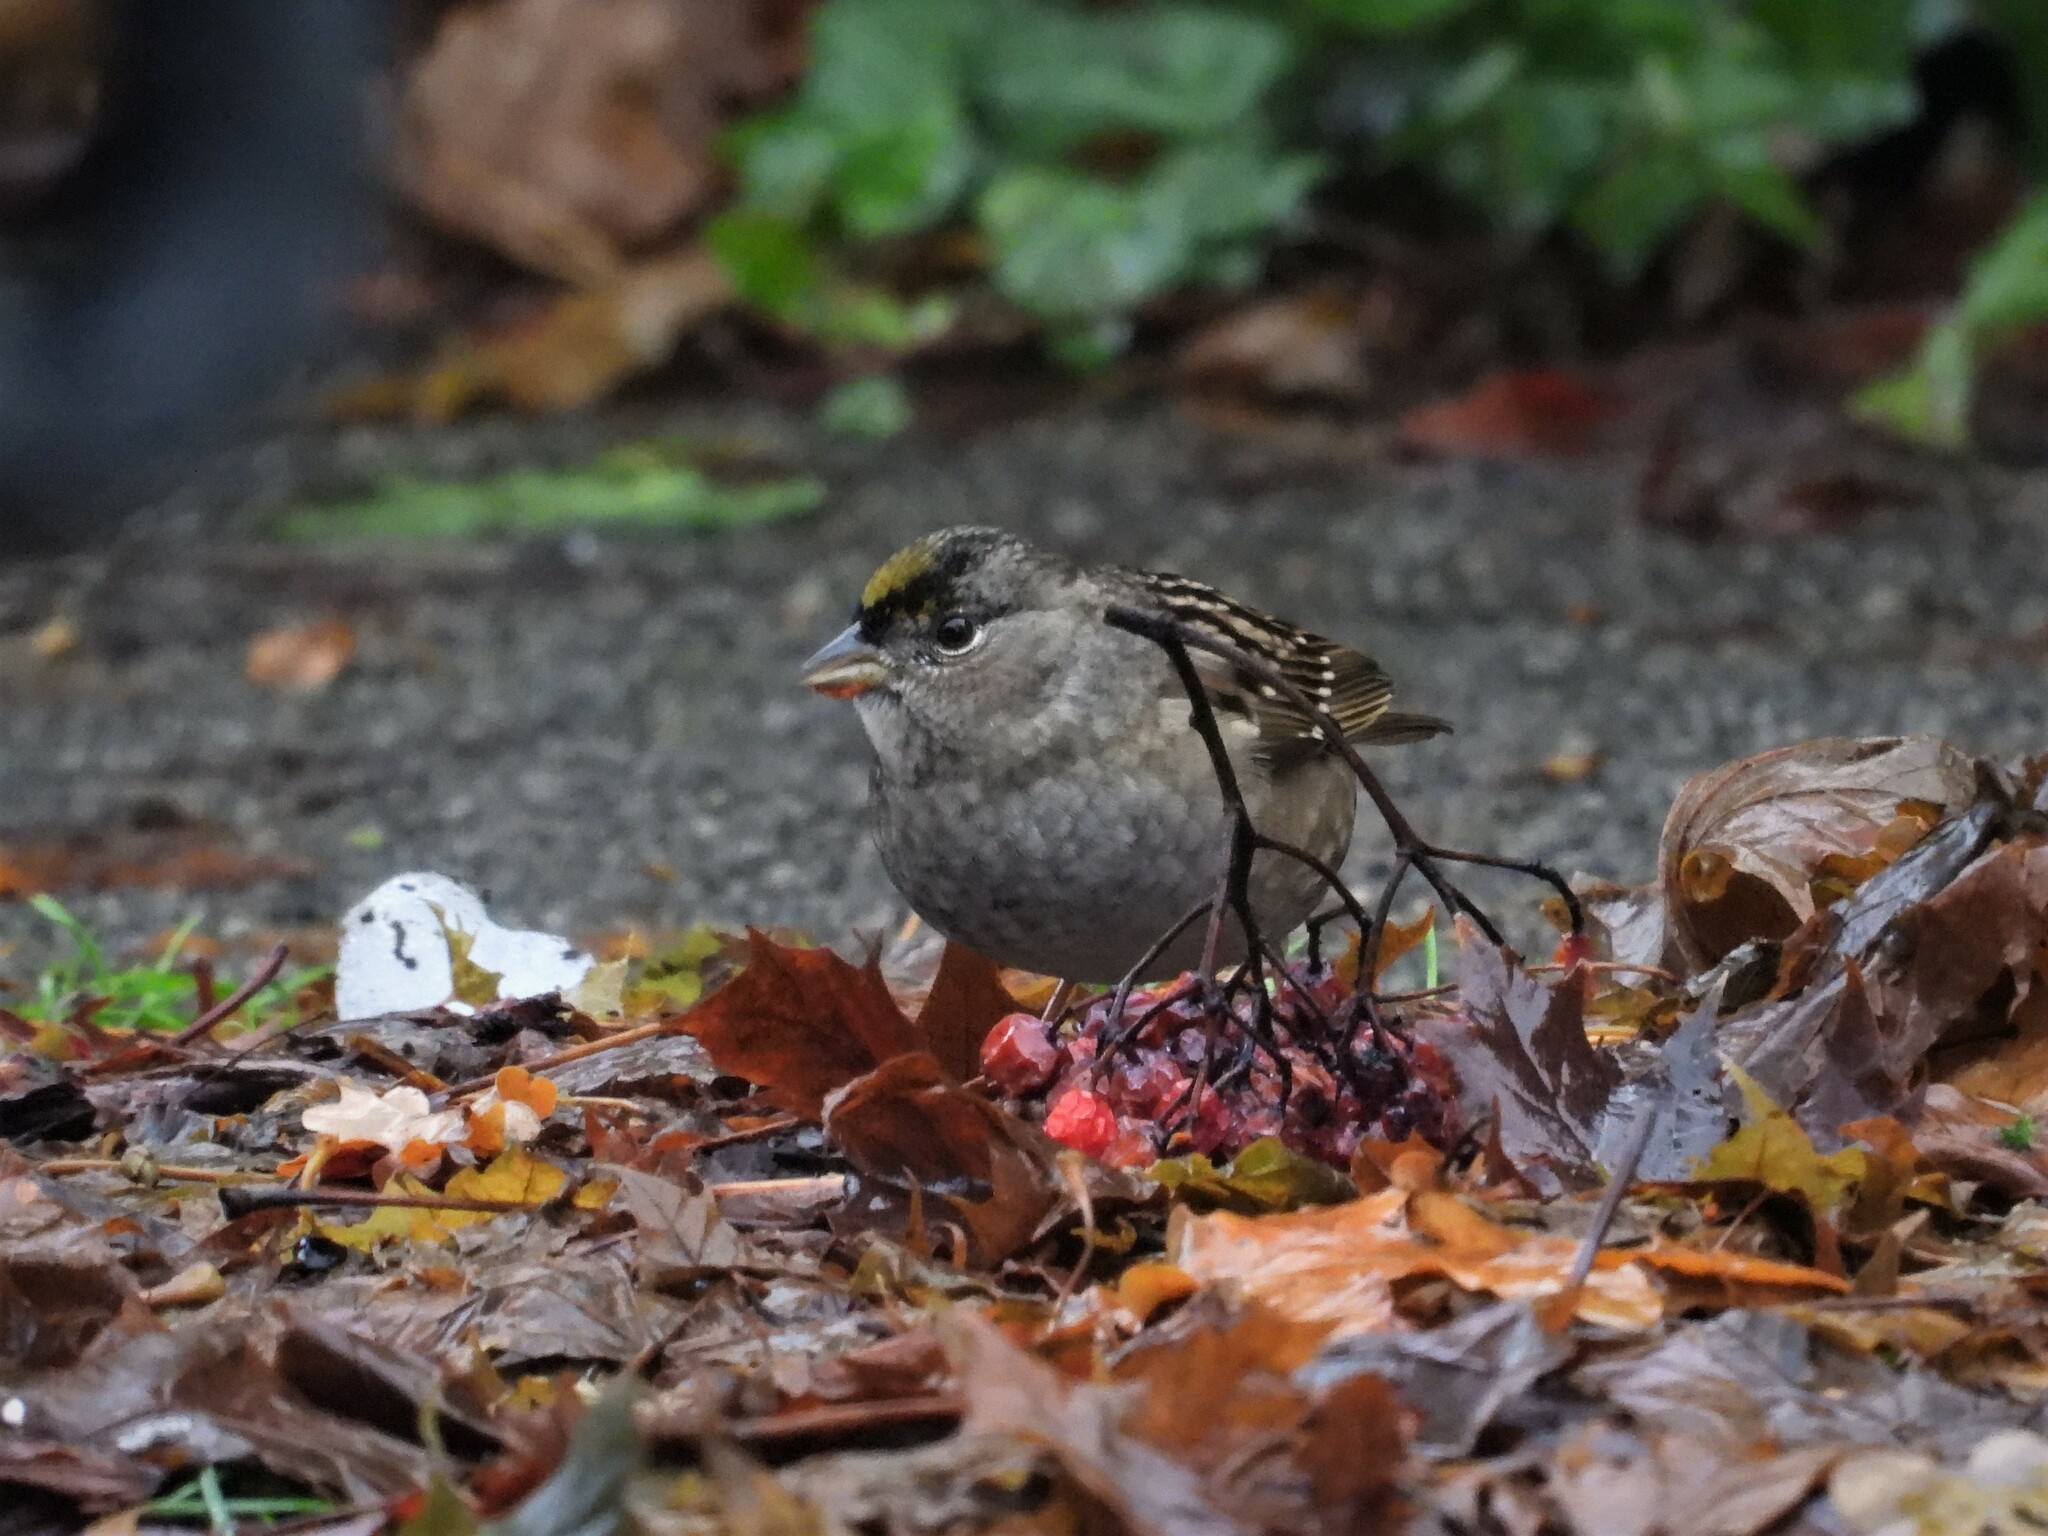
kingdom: Animalia
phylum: Chordata
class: Aves
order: Passeriformes
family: Passerellidae
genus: Zonotrichia
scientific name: Zonotrichia atricapilla
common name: Golden-crowned sparrow
